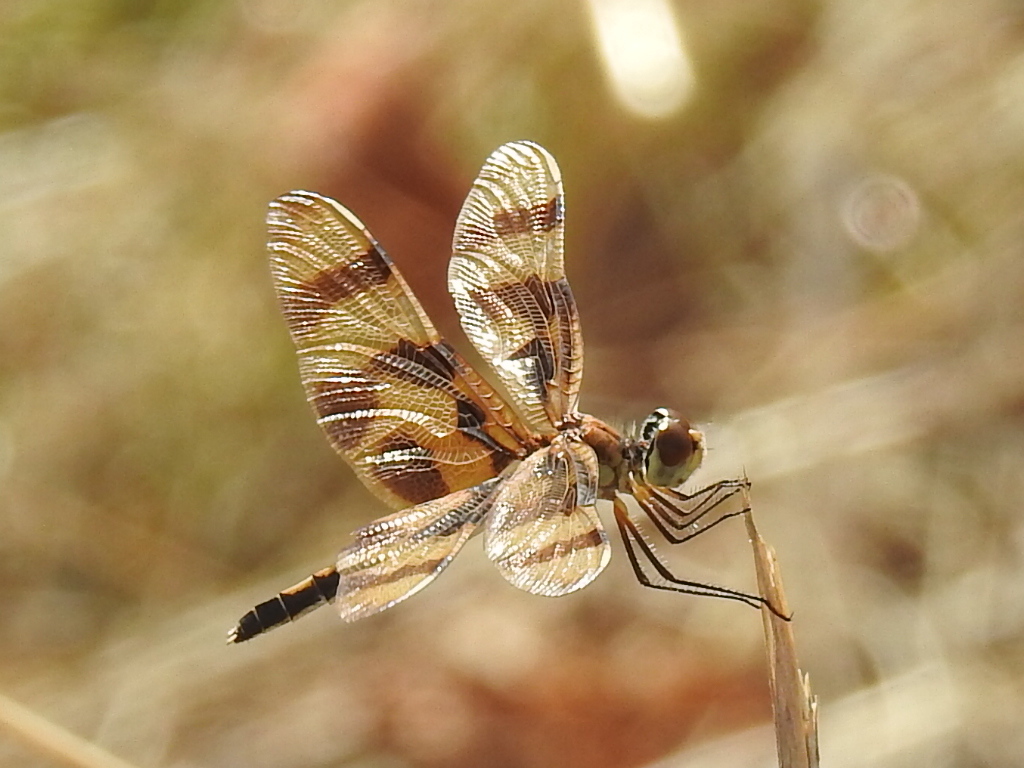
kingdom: Animalia
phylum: Arthropoda
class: Insecta
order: Odonata
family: Libellulidae
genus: Celithemis
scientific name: Celithemis eponina
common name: Halloween pennant
